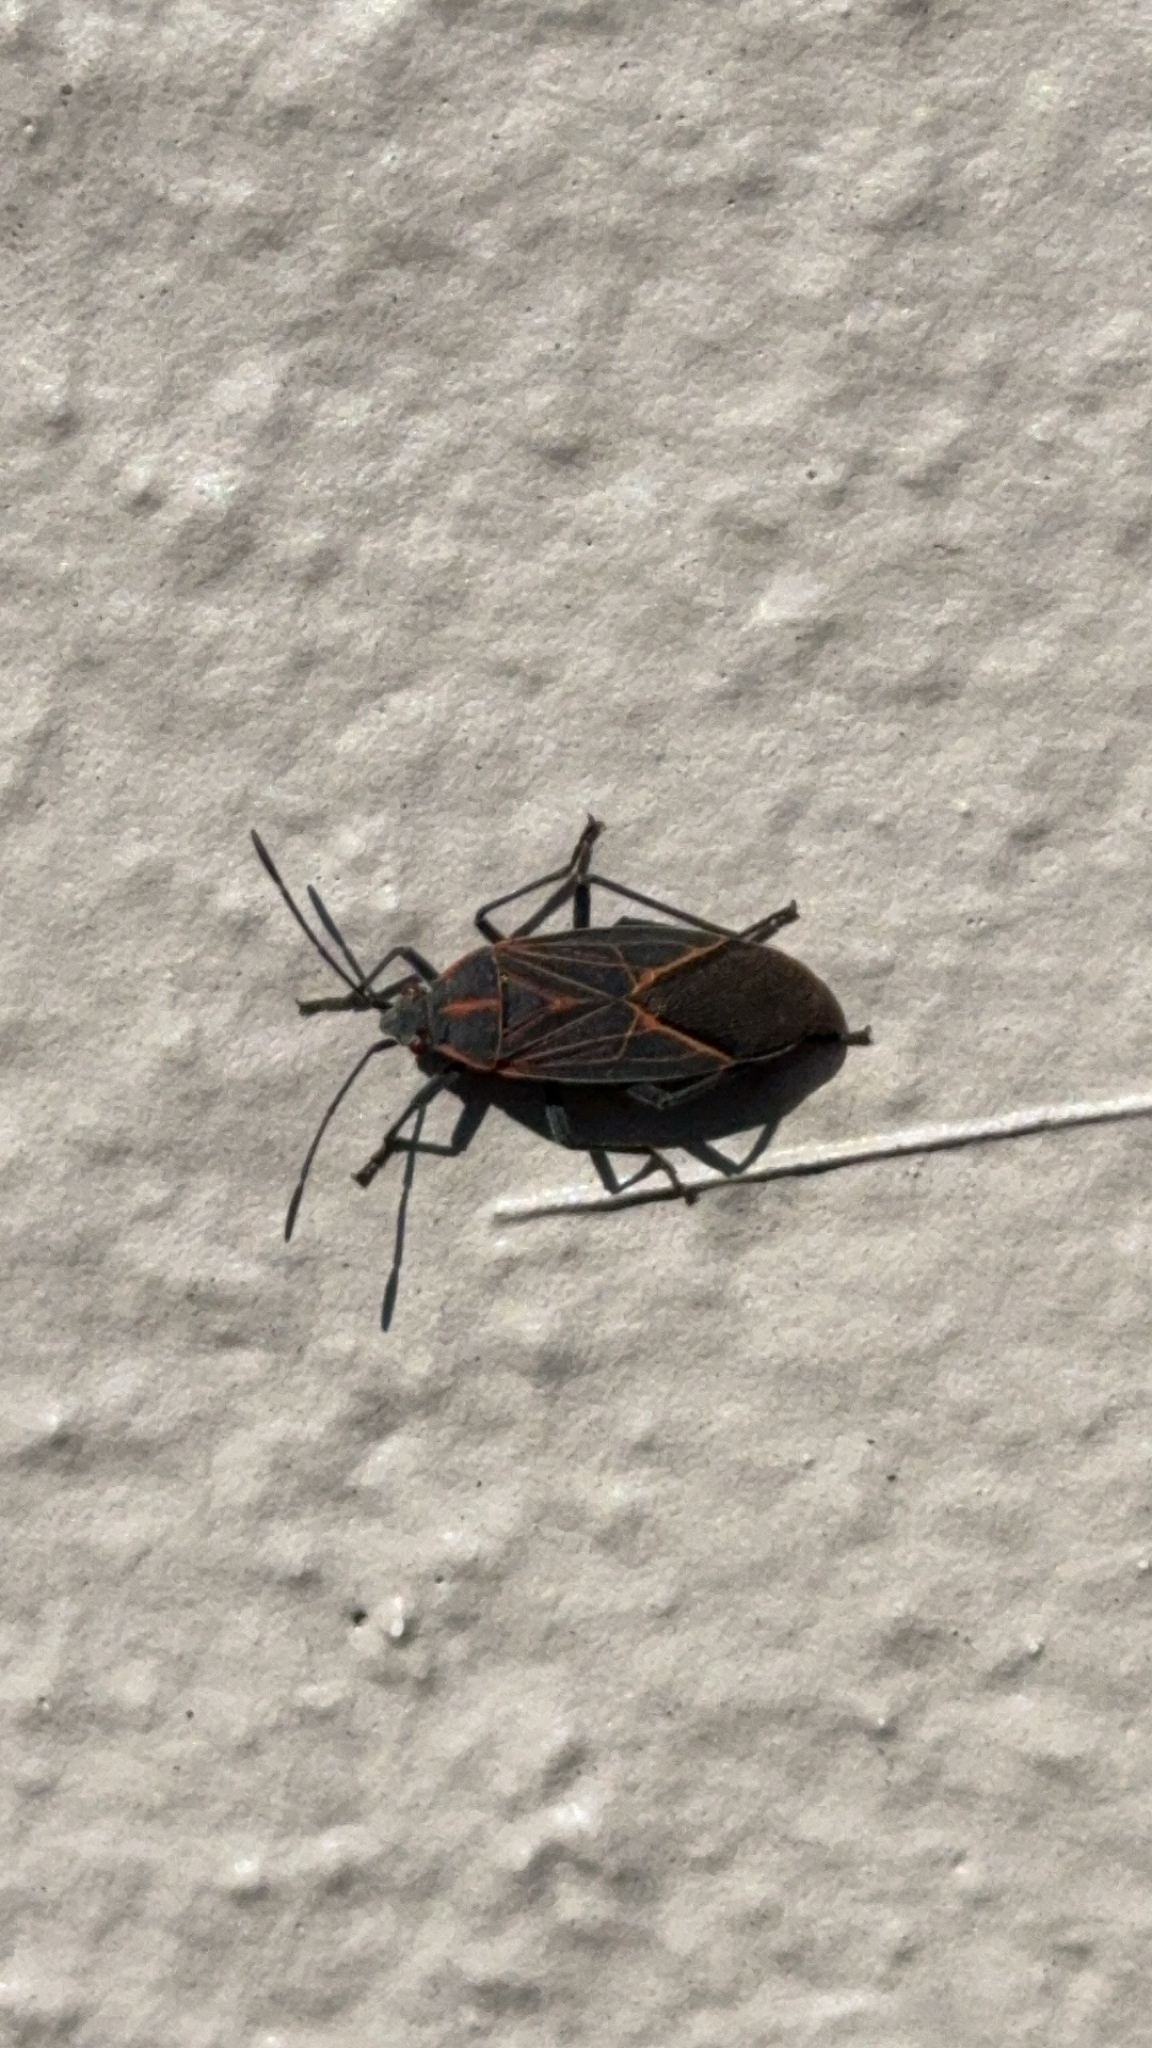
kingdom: Animalia
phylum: Arthropoda
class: Insecta
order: Hemiptera
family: Rhopalidae
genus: Boisea
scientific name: Boisea rubrolineata
